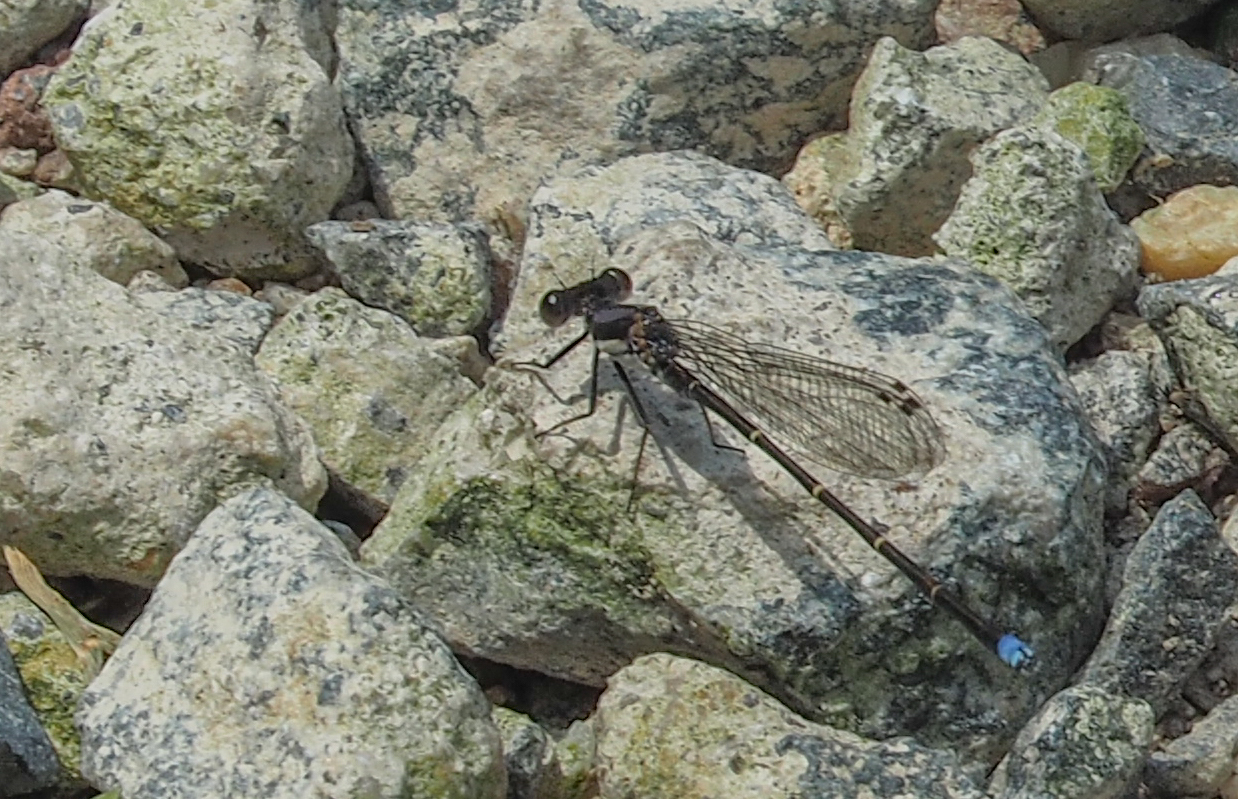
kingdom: Animalia
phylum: Arthropoda
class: Insecta
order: Odonata
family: Coenagrionidae
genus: Argia
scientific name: Argia tibialis
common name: Blue-tipped dancer
